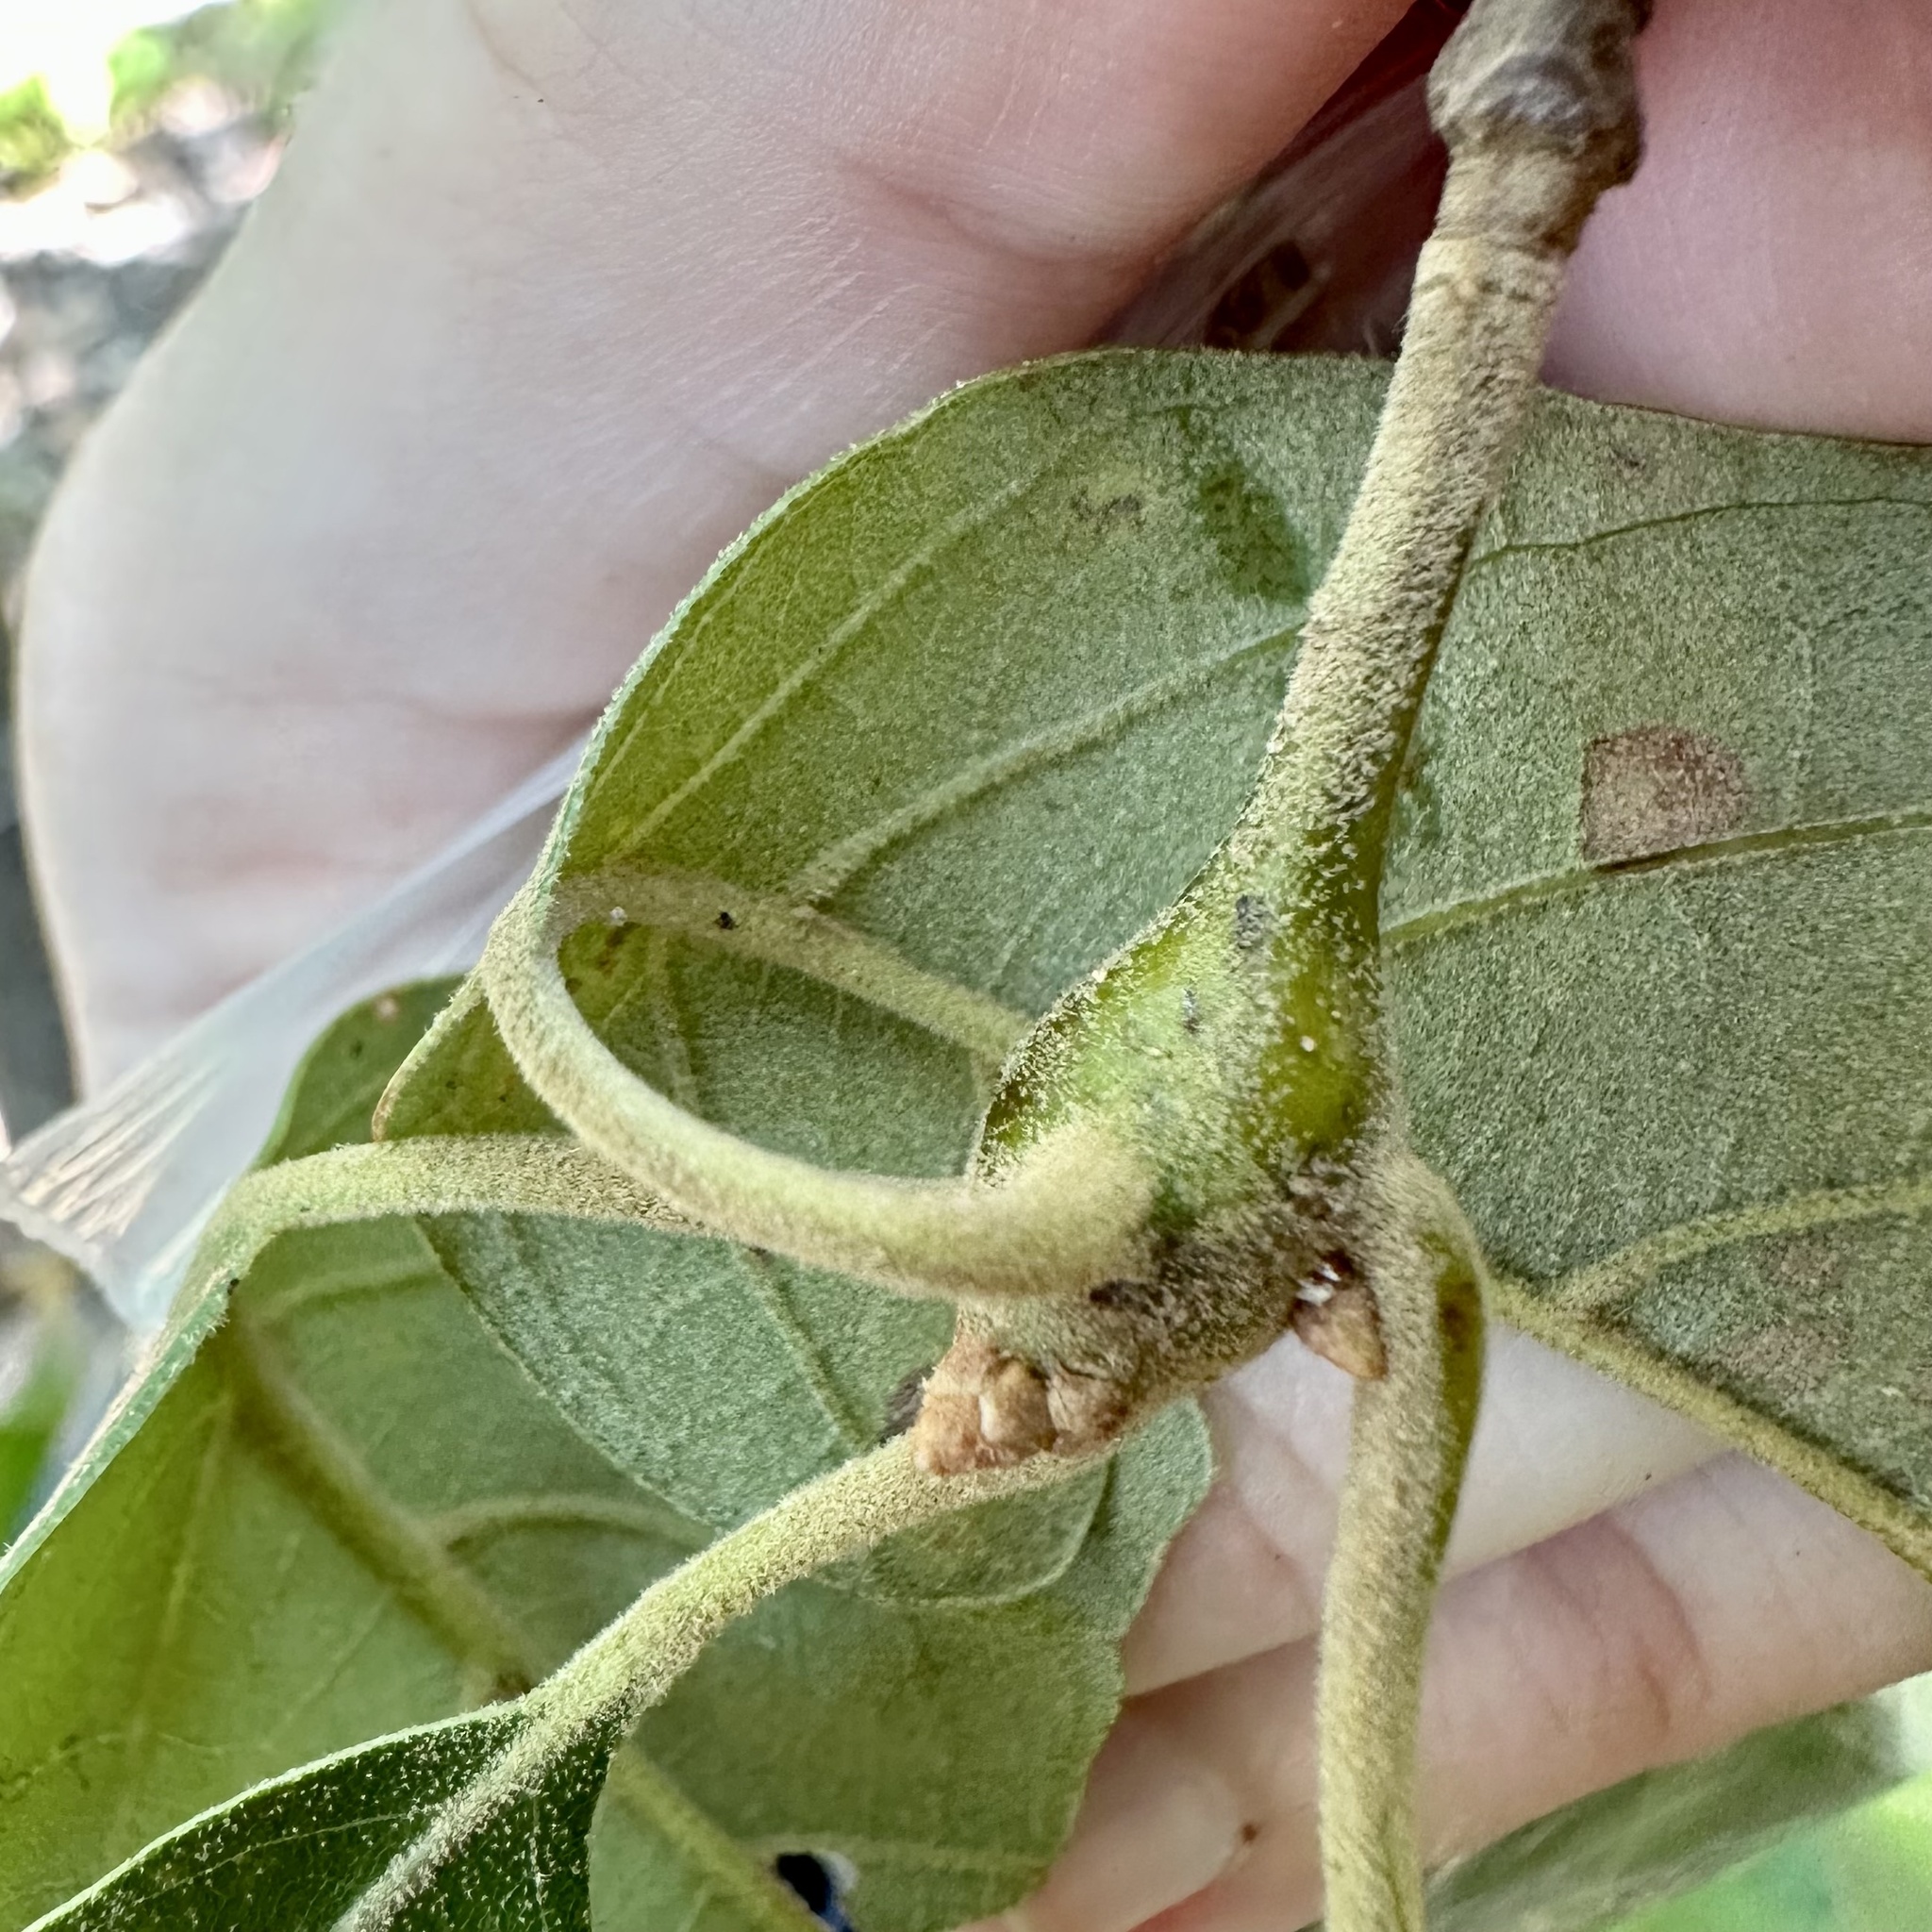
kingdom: Animalia
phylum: Arthropoda
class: Insecta
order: Hymenoptera
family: Cynipidae
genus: Zapatella
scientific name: Zapatella quercusphellos
